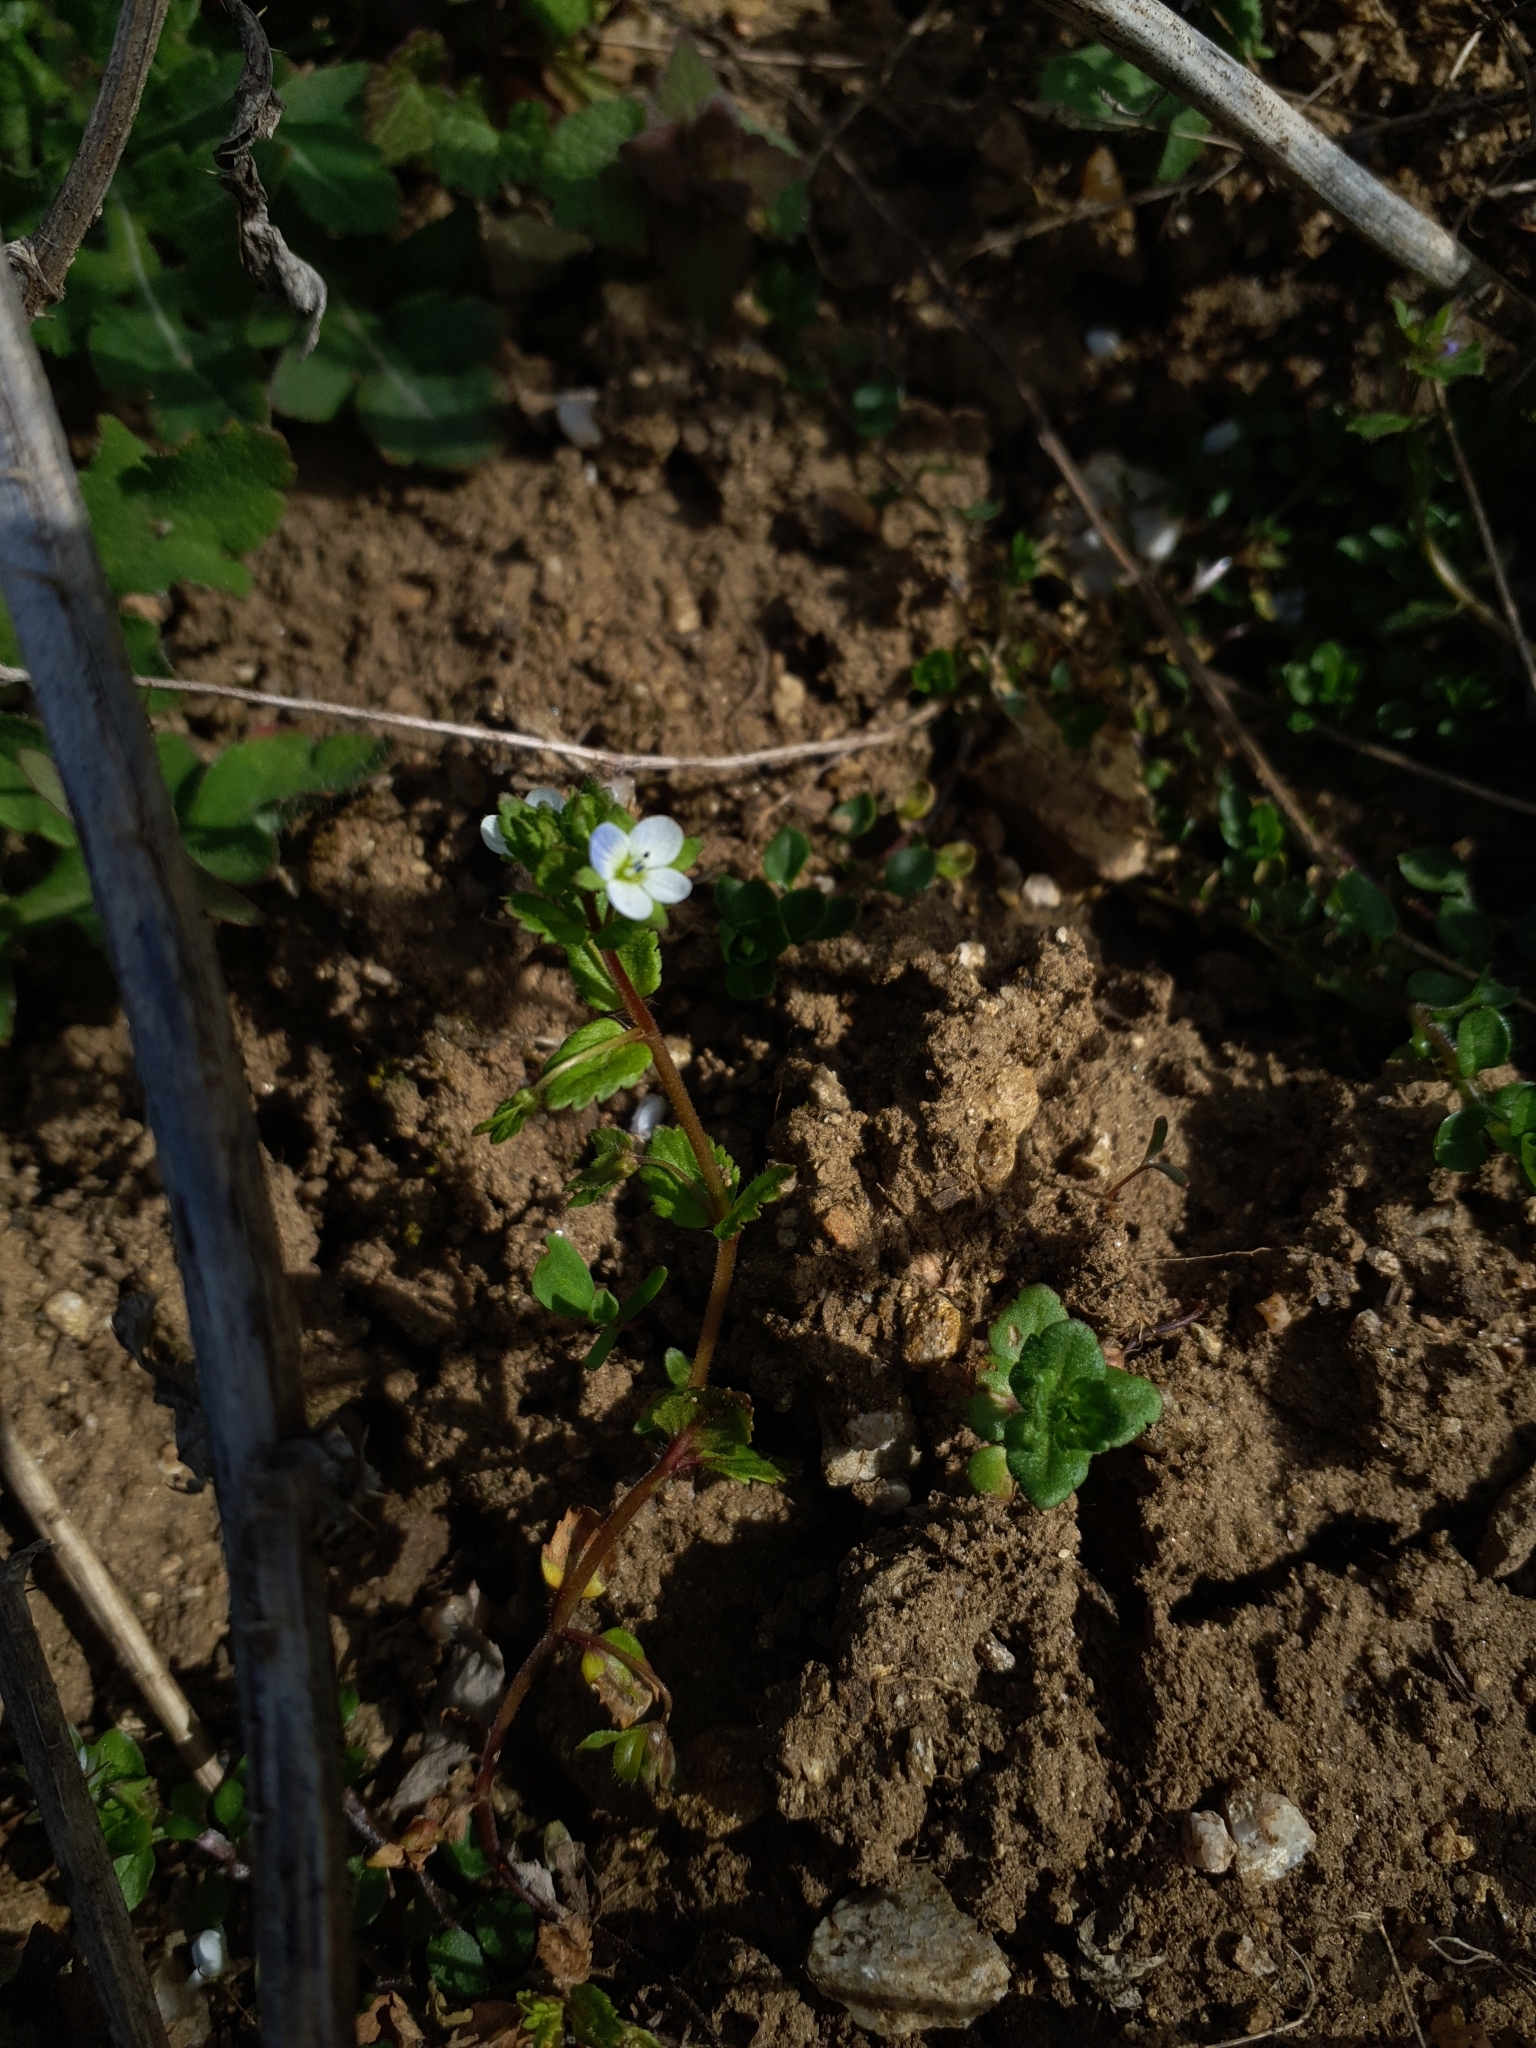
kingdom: Plantae
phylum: Tracheophyta
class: Magnoliopsida
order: Lamiales
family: Plantaginaceae
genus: Veronica
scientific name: Veronica agrestis
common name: Green field-speedwell
